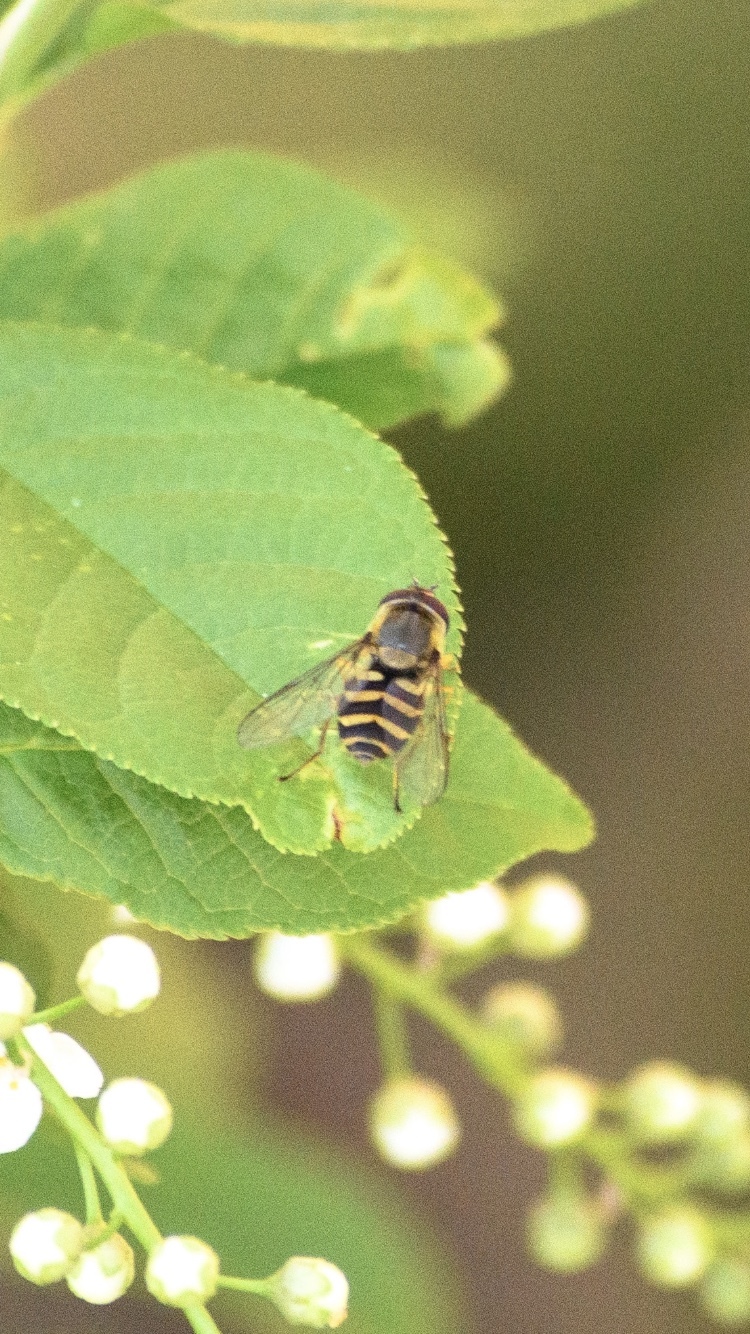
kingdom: Animalia
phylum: Arthropoda
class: Insecta
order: Diptera
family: Syrphidae
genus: Syrphus
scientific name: Syrphus
